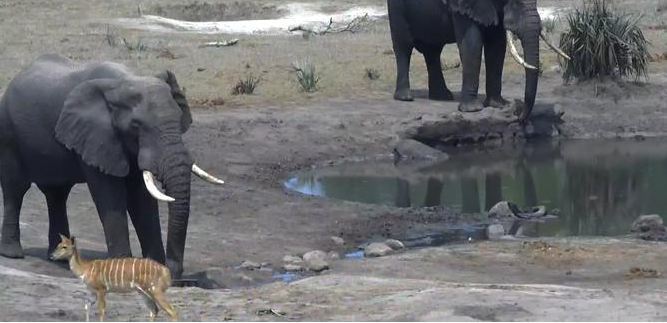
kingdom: Animalia
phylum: Chordata
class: Mammalia
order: Proboscidea
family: Elephantidae
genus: Loxodonta
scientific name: Loxodonta africana
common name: African elephant
